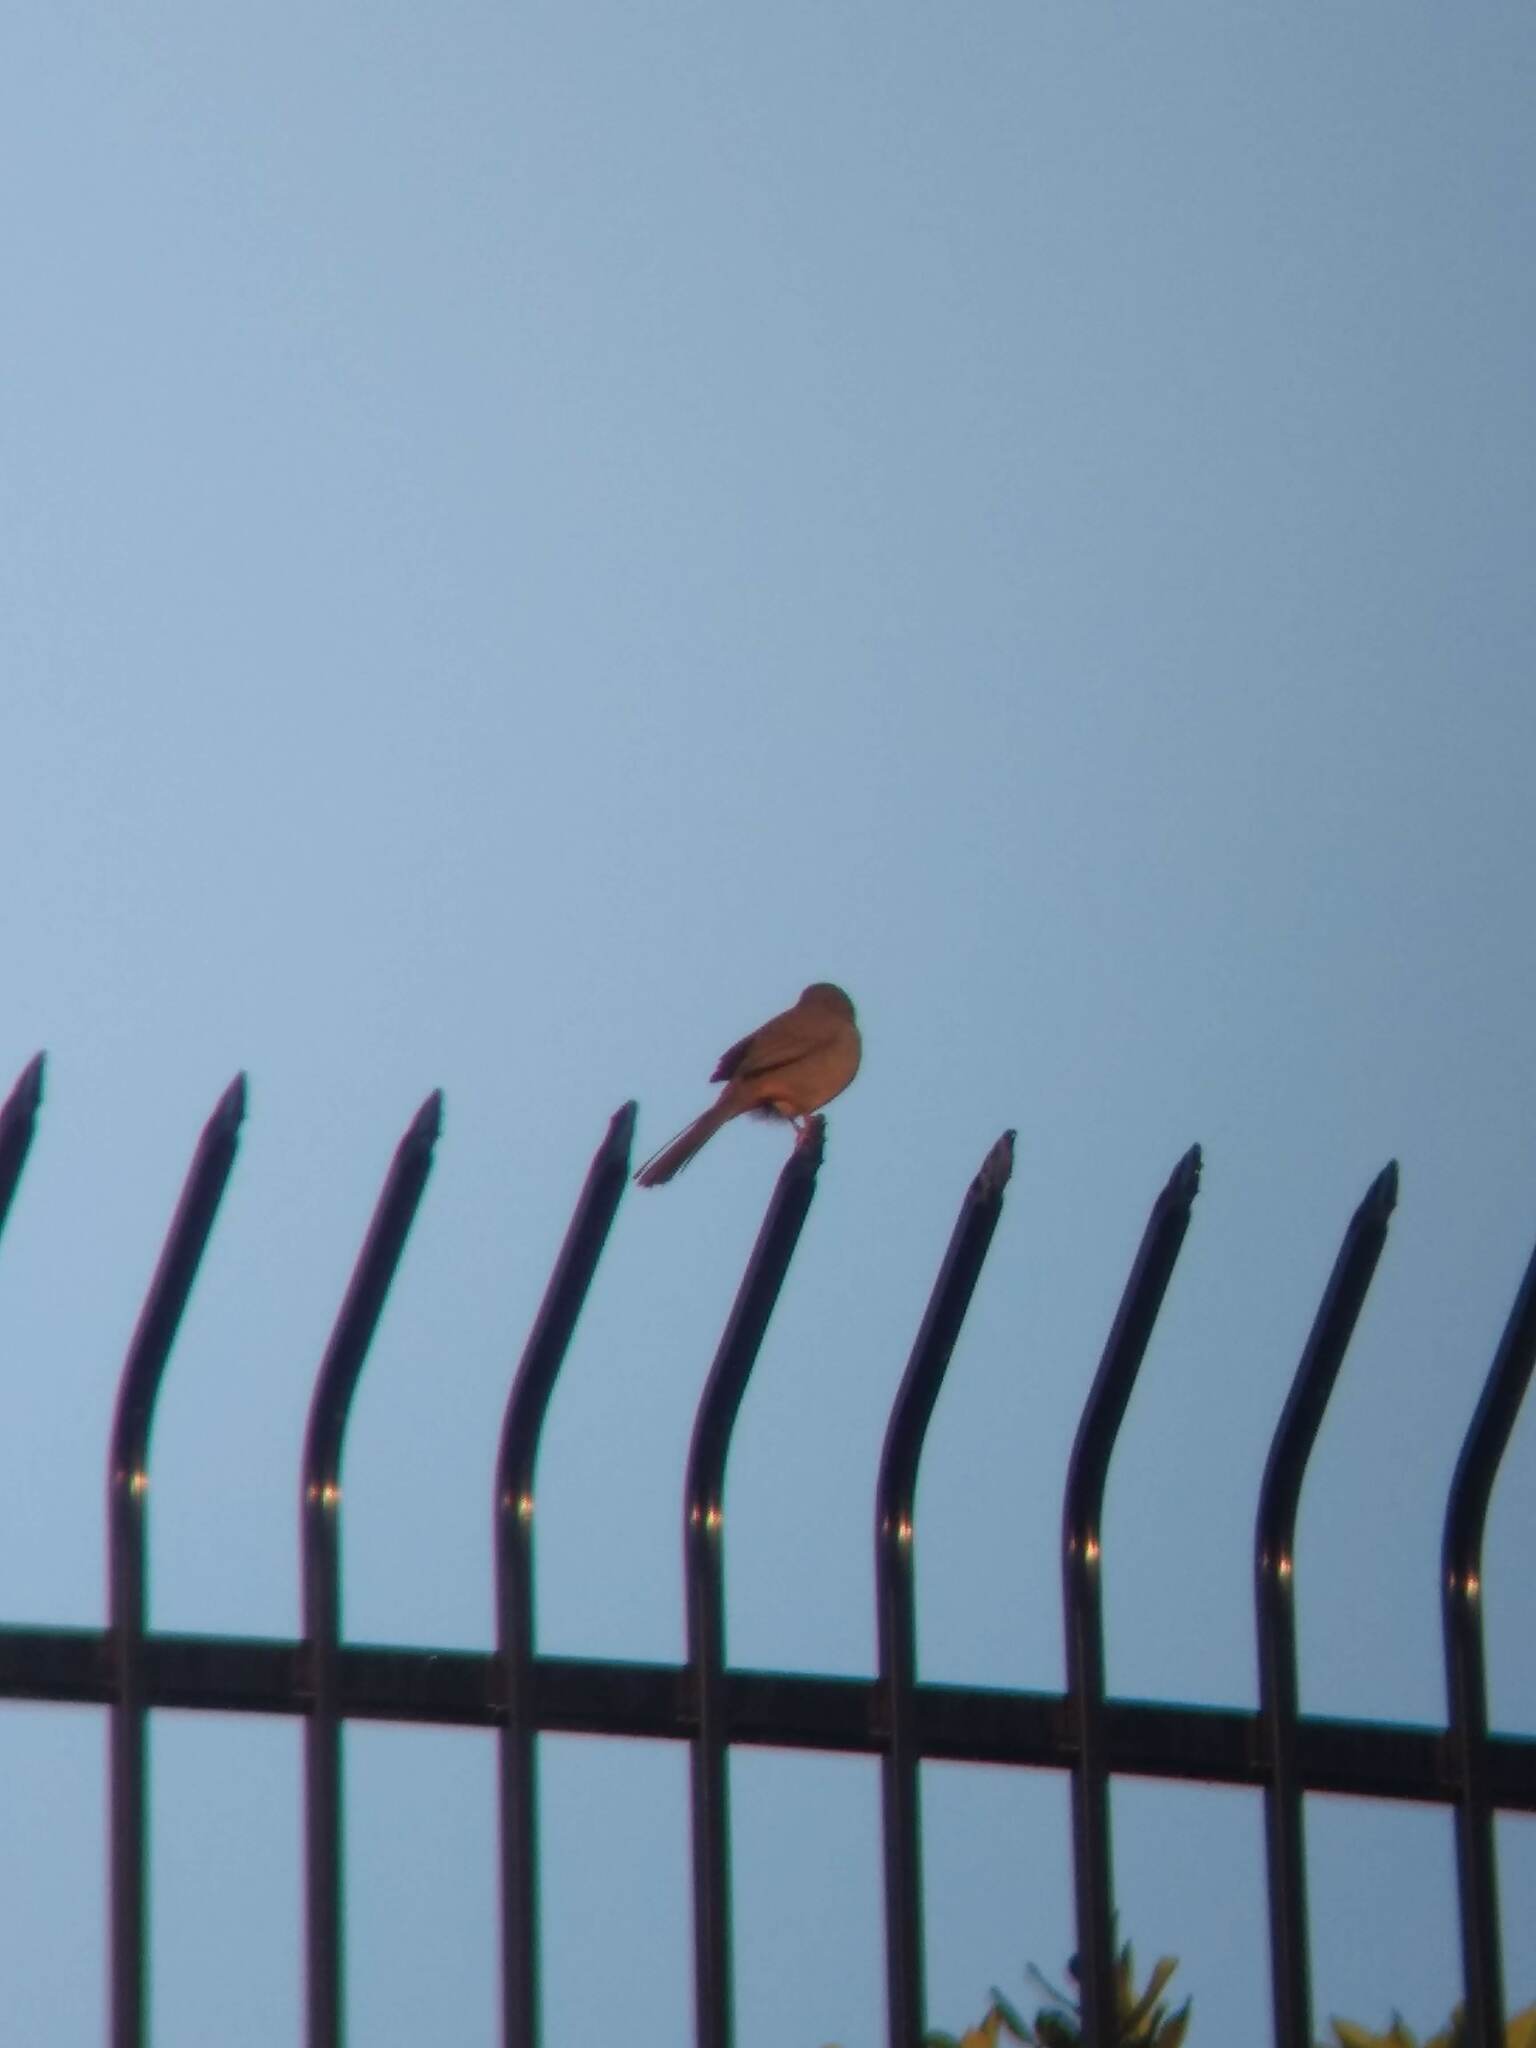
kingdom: Animalia
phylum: Chordata
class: Aves
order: Passeriformes
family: Passerellidae
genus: Melozone
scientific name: Melozone crissalis
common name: California towhee
